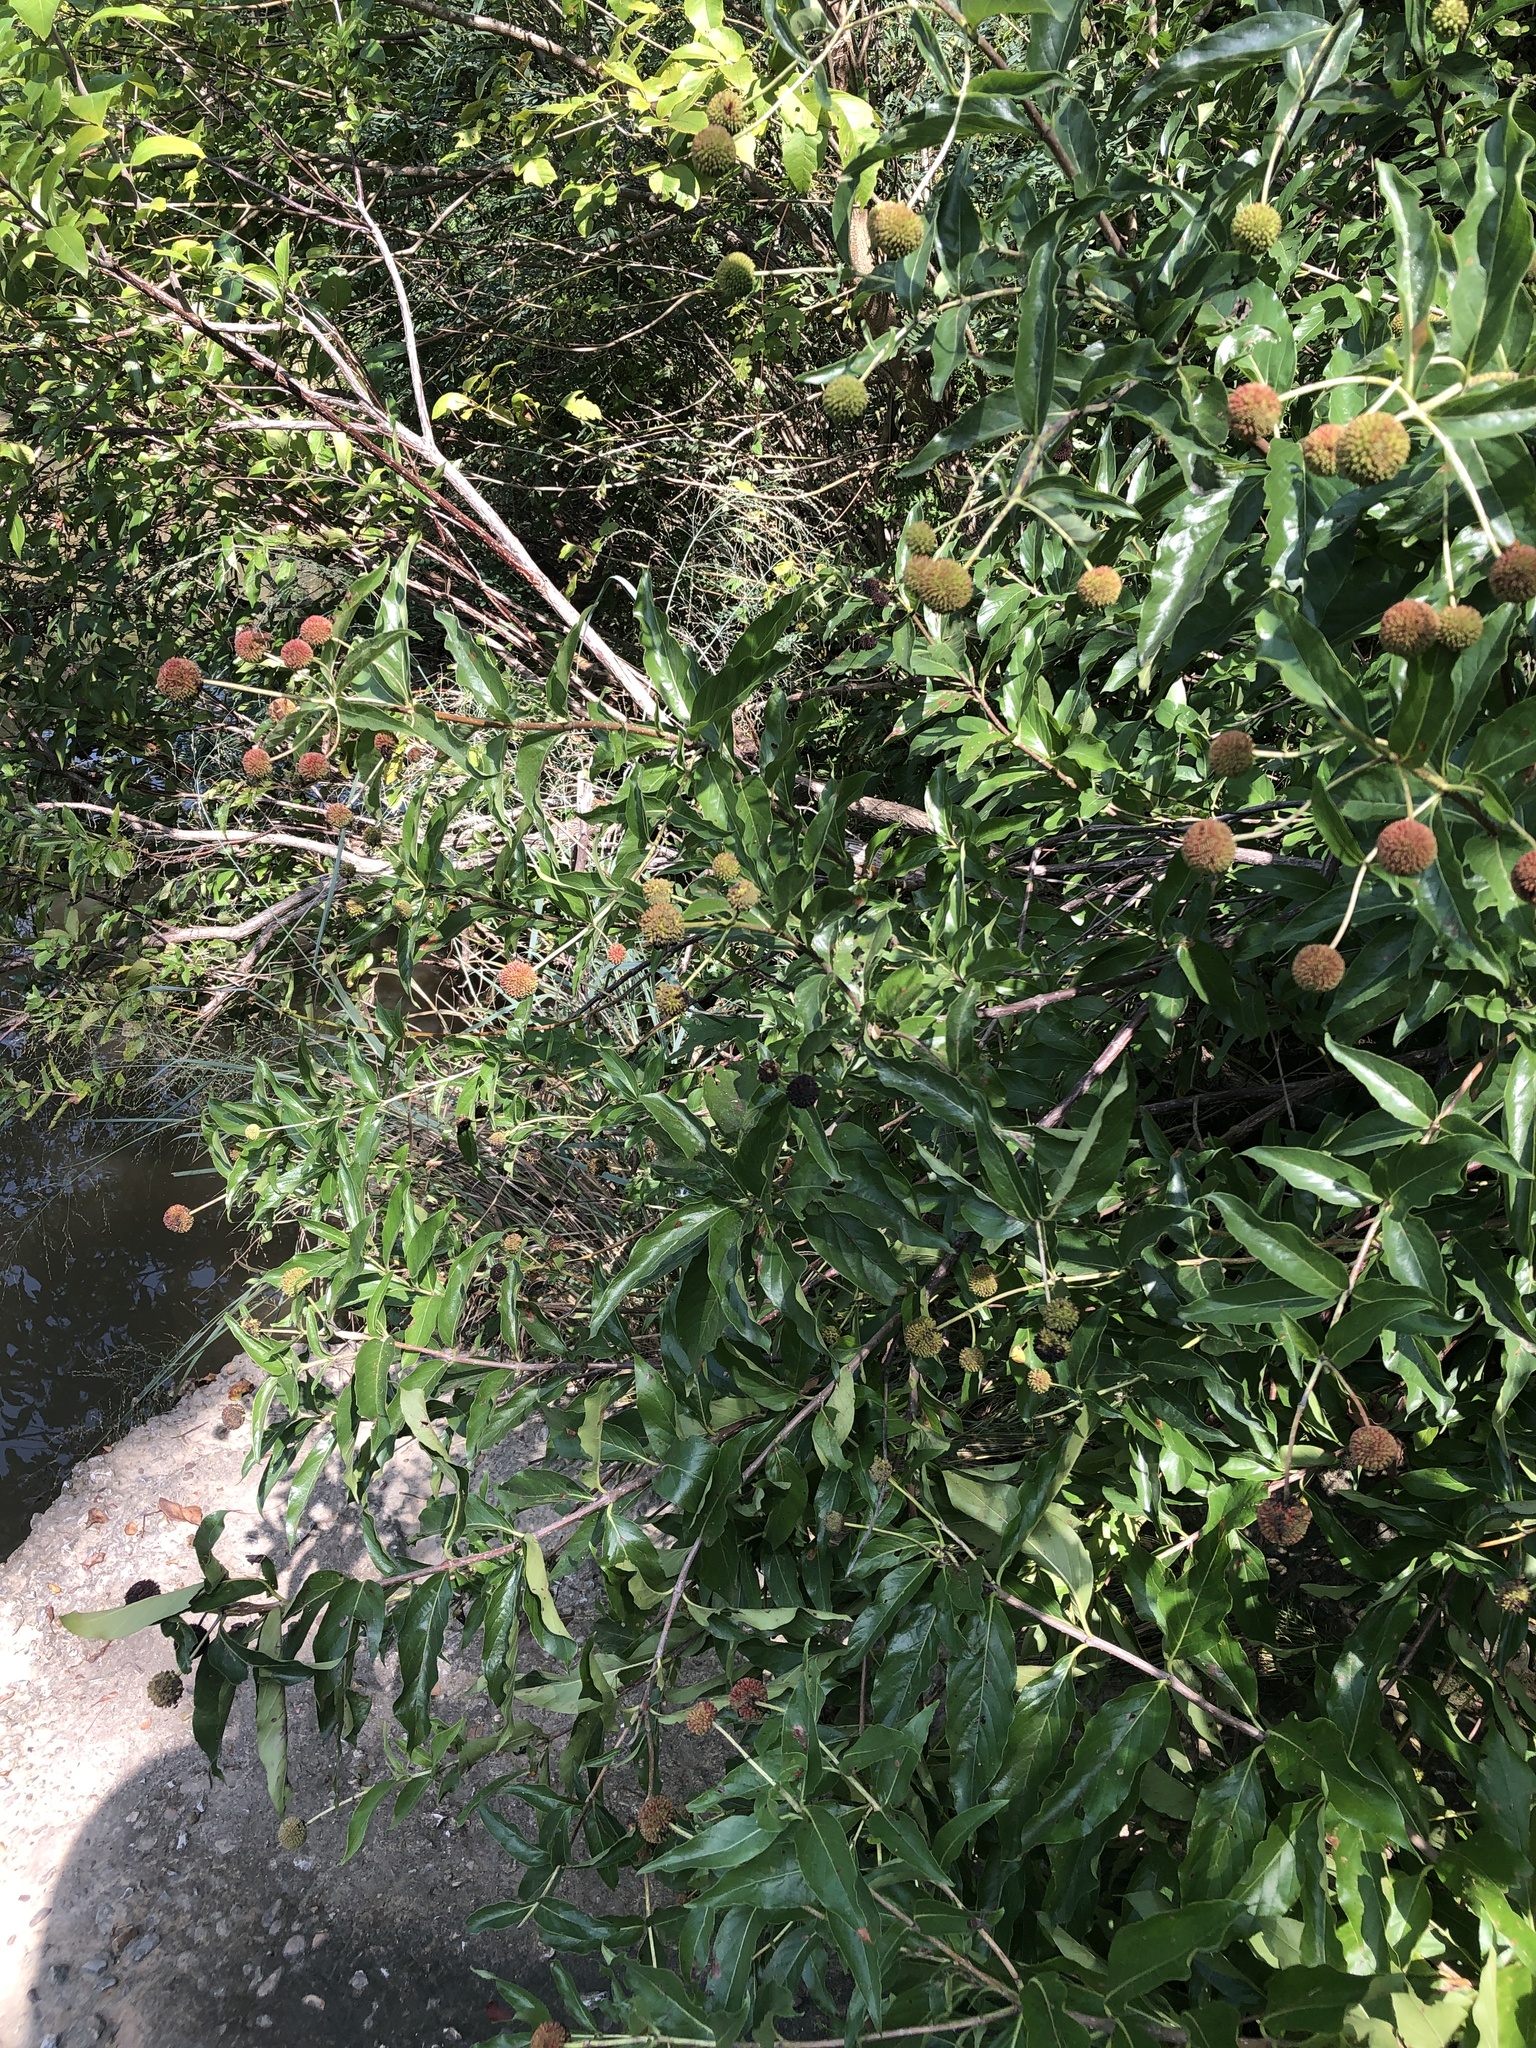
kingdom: Plantae
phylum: Tracheophyta
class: Magnoliopsida
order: Gentianales
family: Rubiaceae
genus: Cephalanthus
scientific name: Cephalanthus occidentalis
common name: Button-willow
